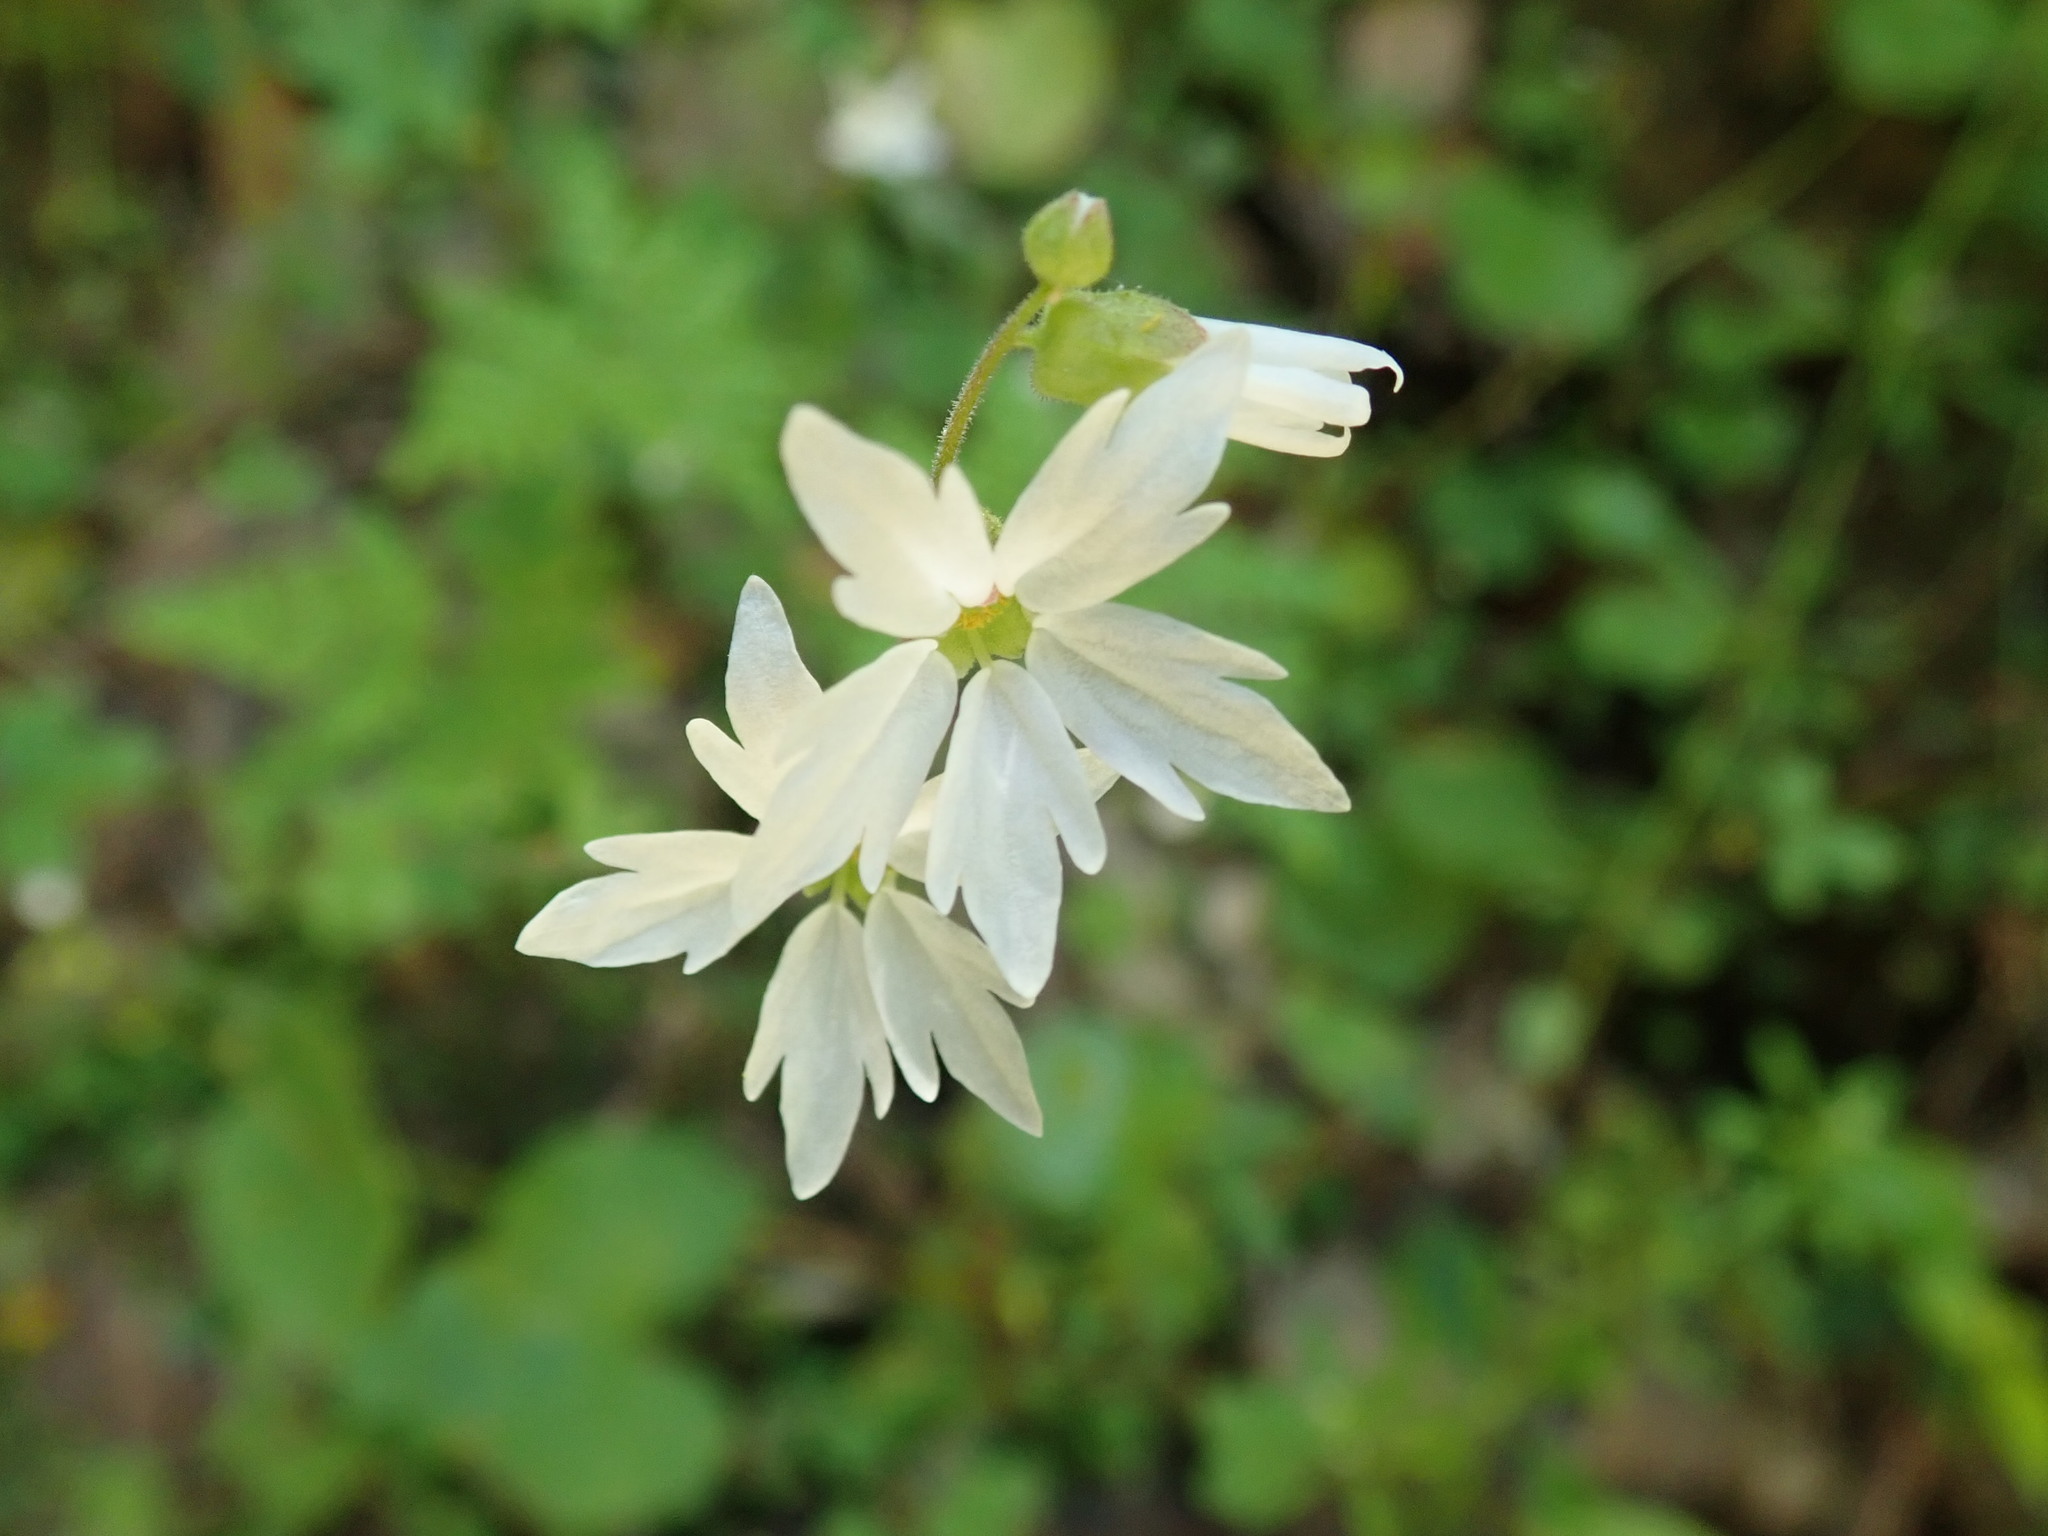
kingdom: Plantae
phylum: Tracheophyta
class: Magnoliopsida
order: Saxifragales
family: Saxifragaceae
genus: Lithophragma
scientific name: Lithophragma heterophyllum
